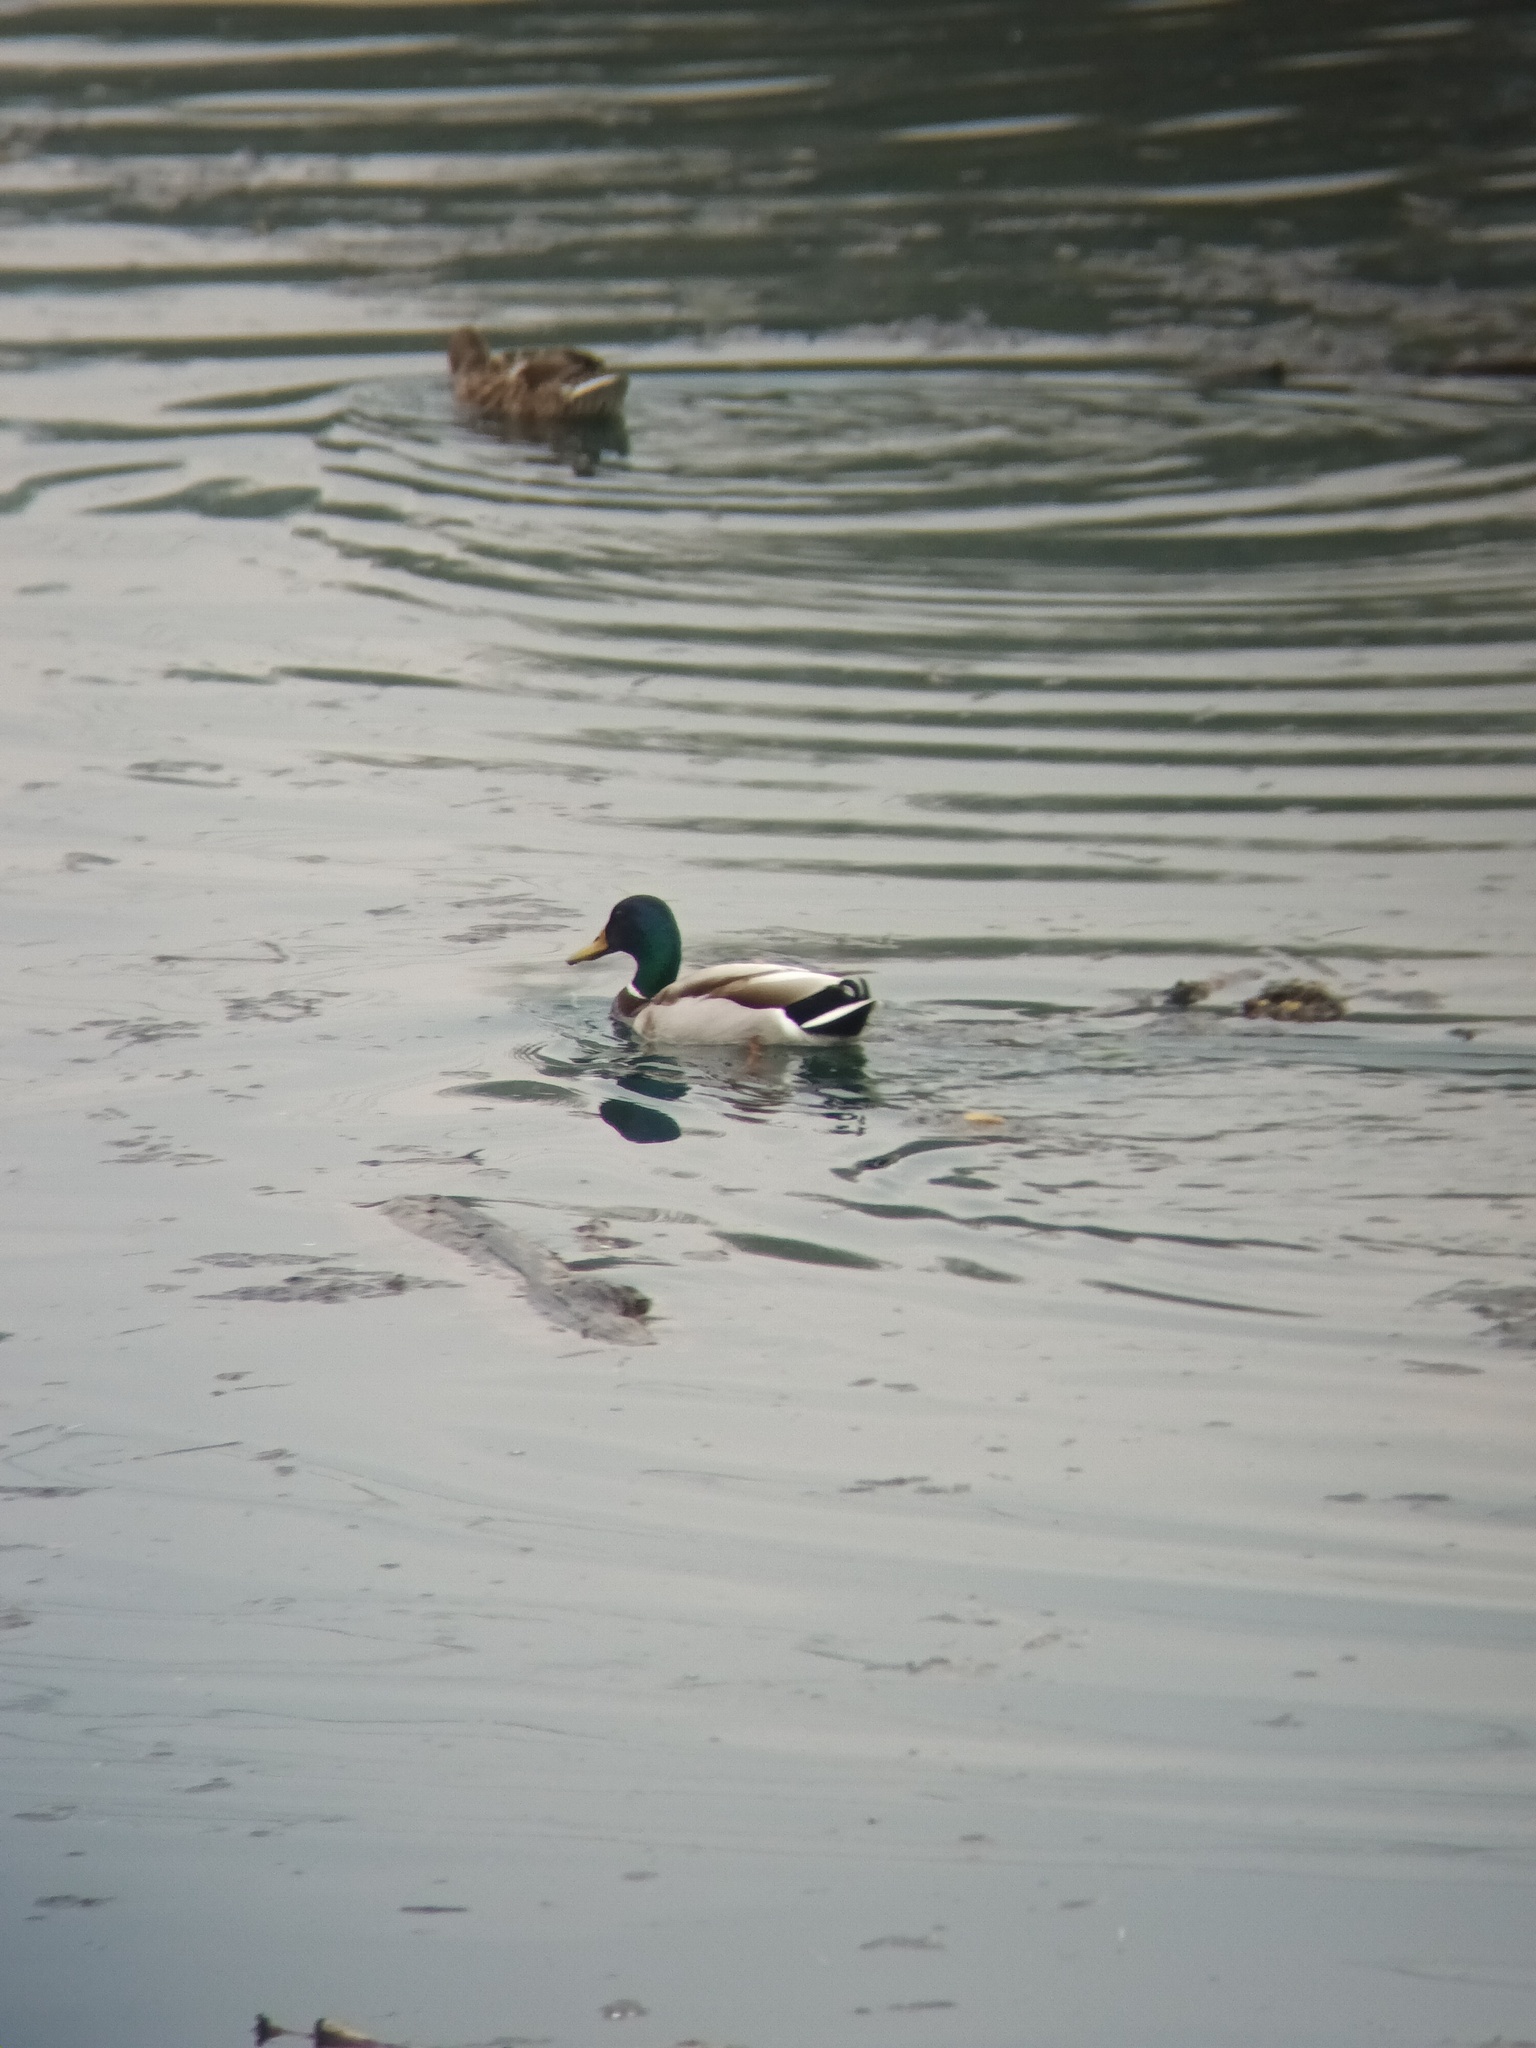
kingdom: Animalia
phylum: Chordata
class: Aves
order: Anseriformes
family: Anatidae
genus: Anas
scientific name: Anas platyrhynchos
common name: Mallard
